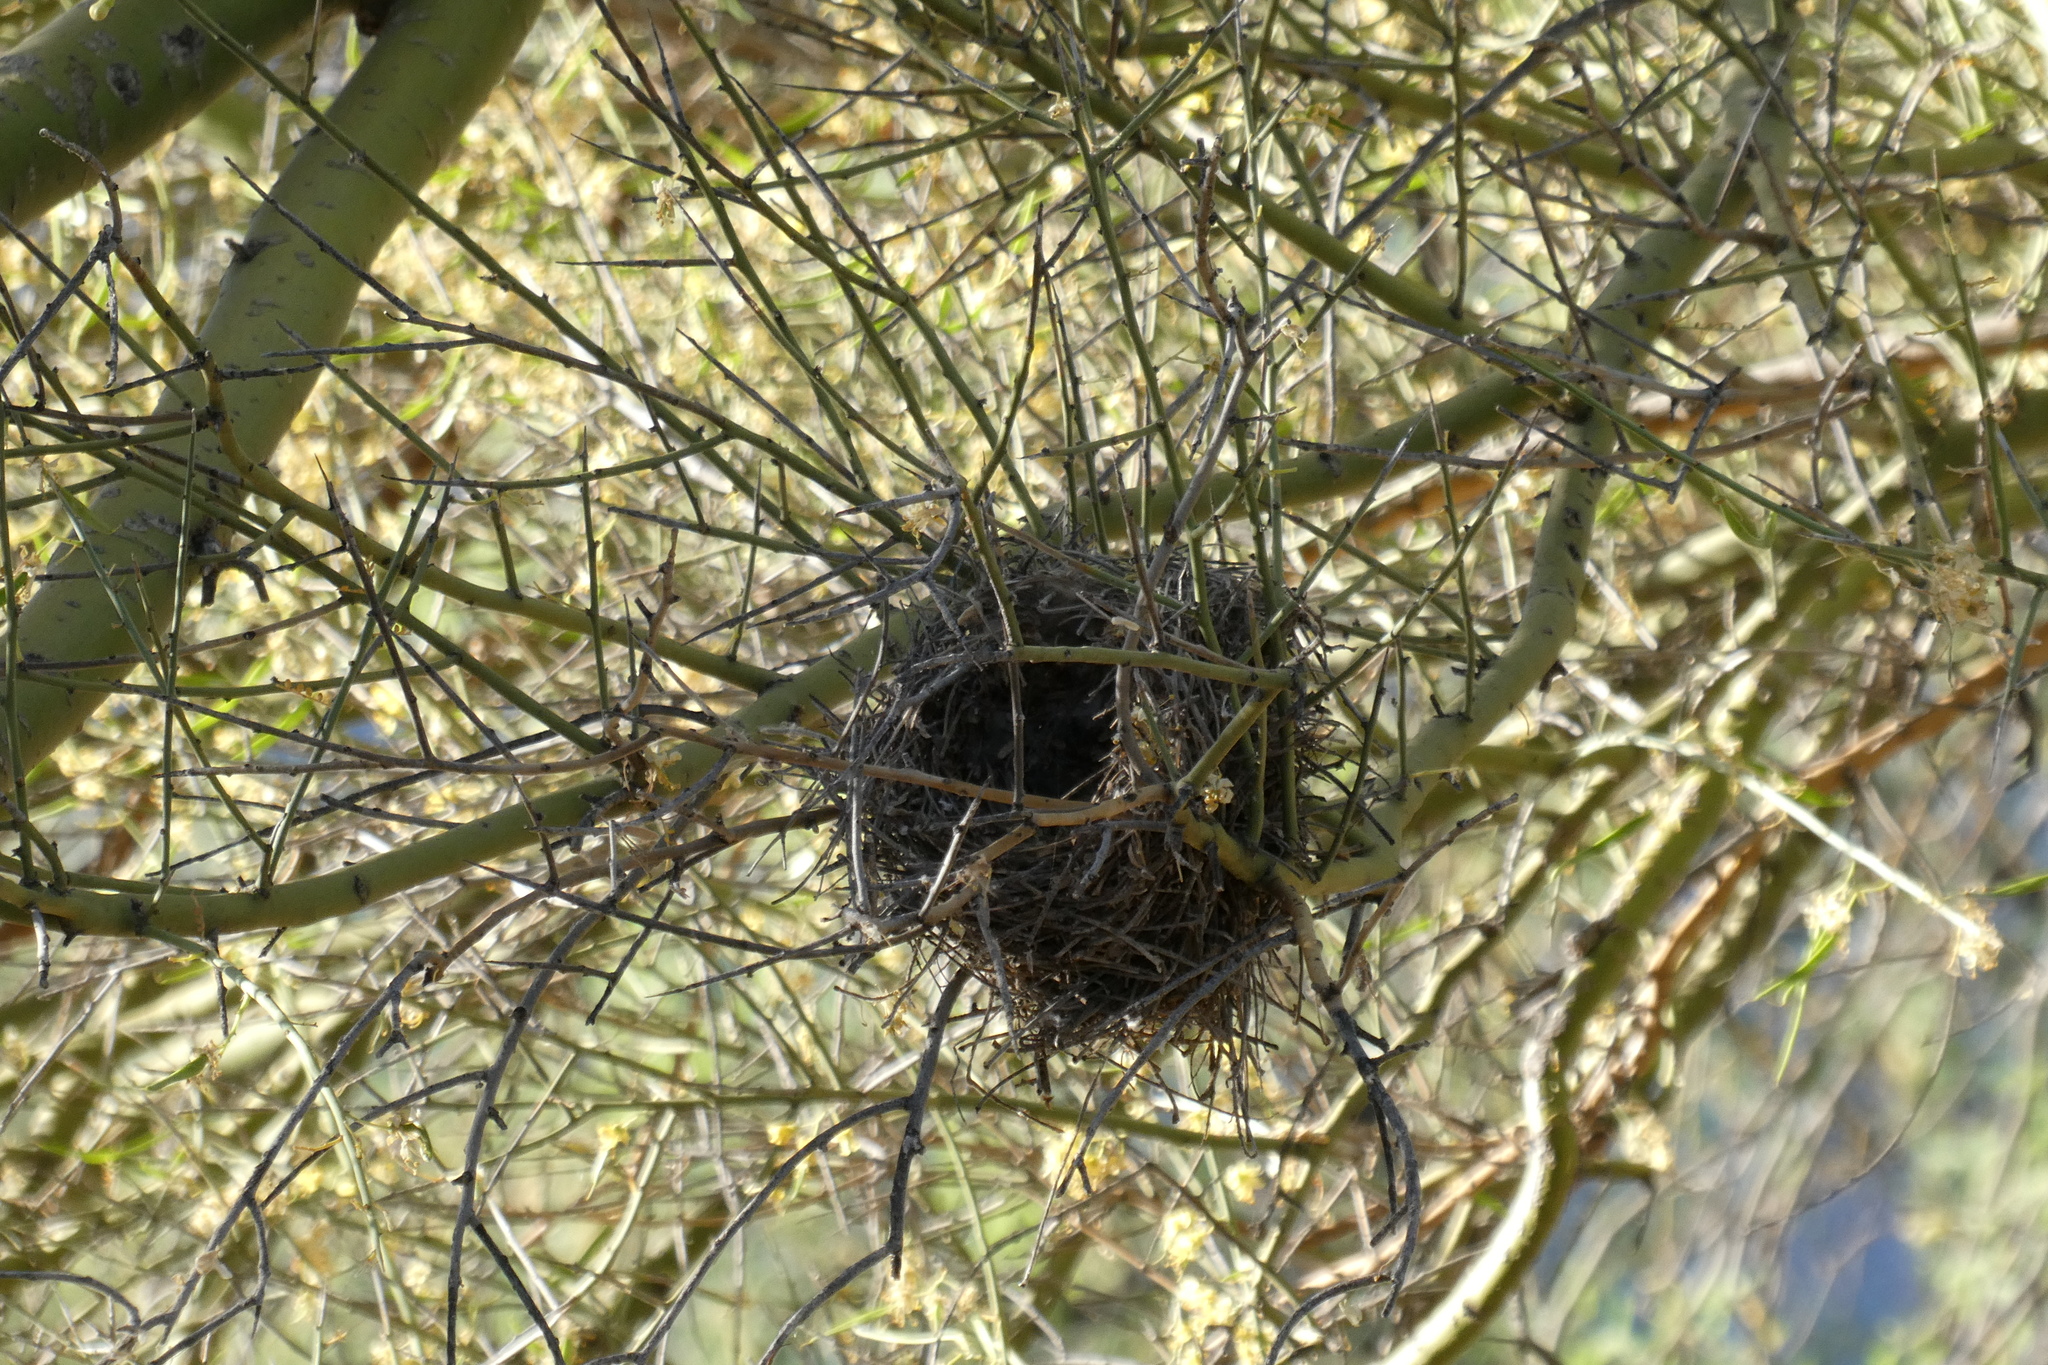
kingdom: Animalia
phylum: Chordata
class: Aves
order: Passeriformes
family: Remizidae
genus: Auriparus
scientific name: Auriparus flaviceps
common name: Verdin
